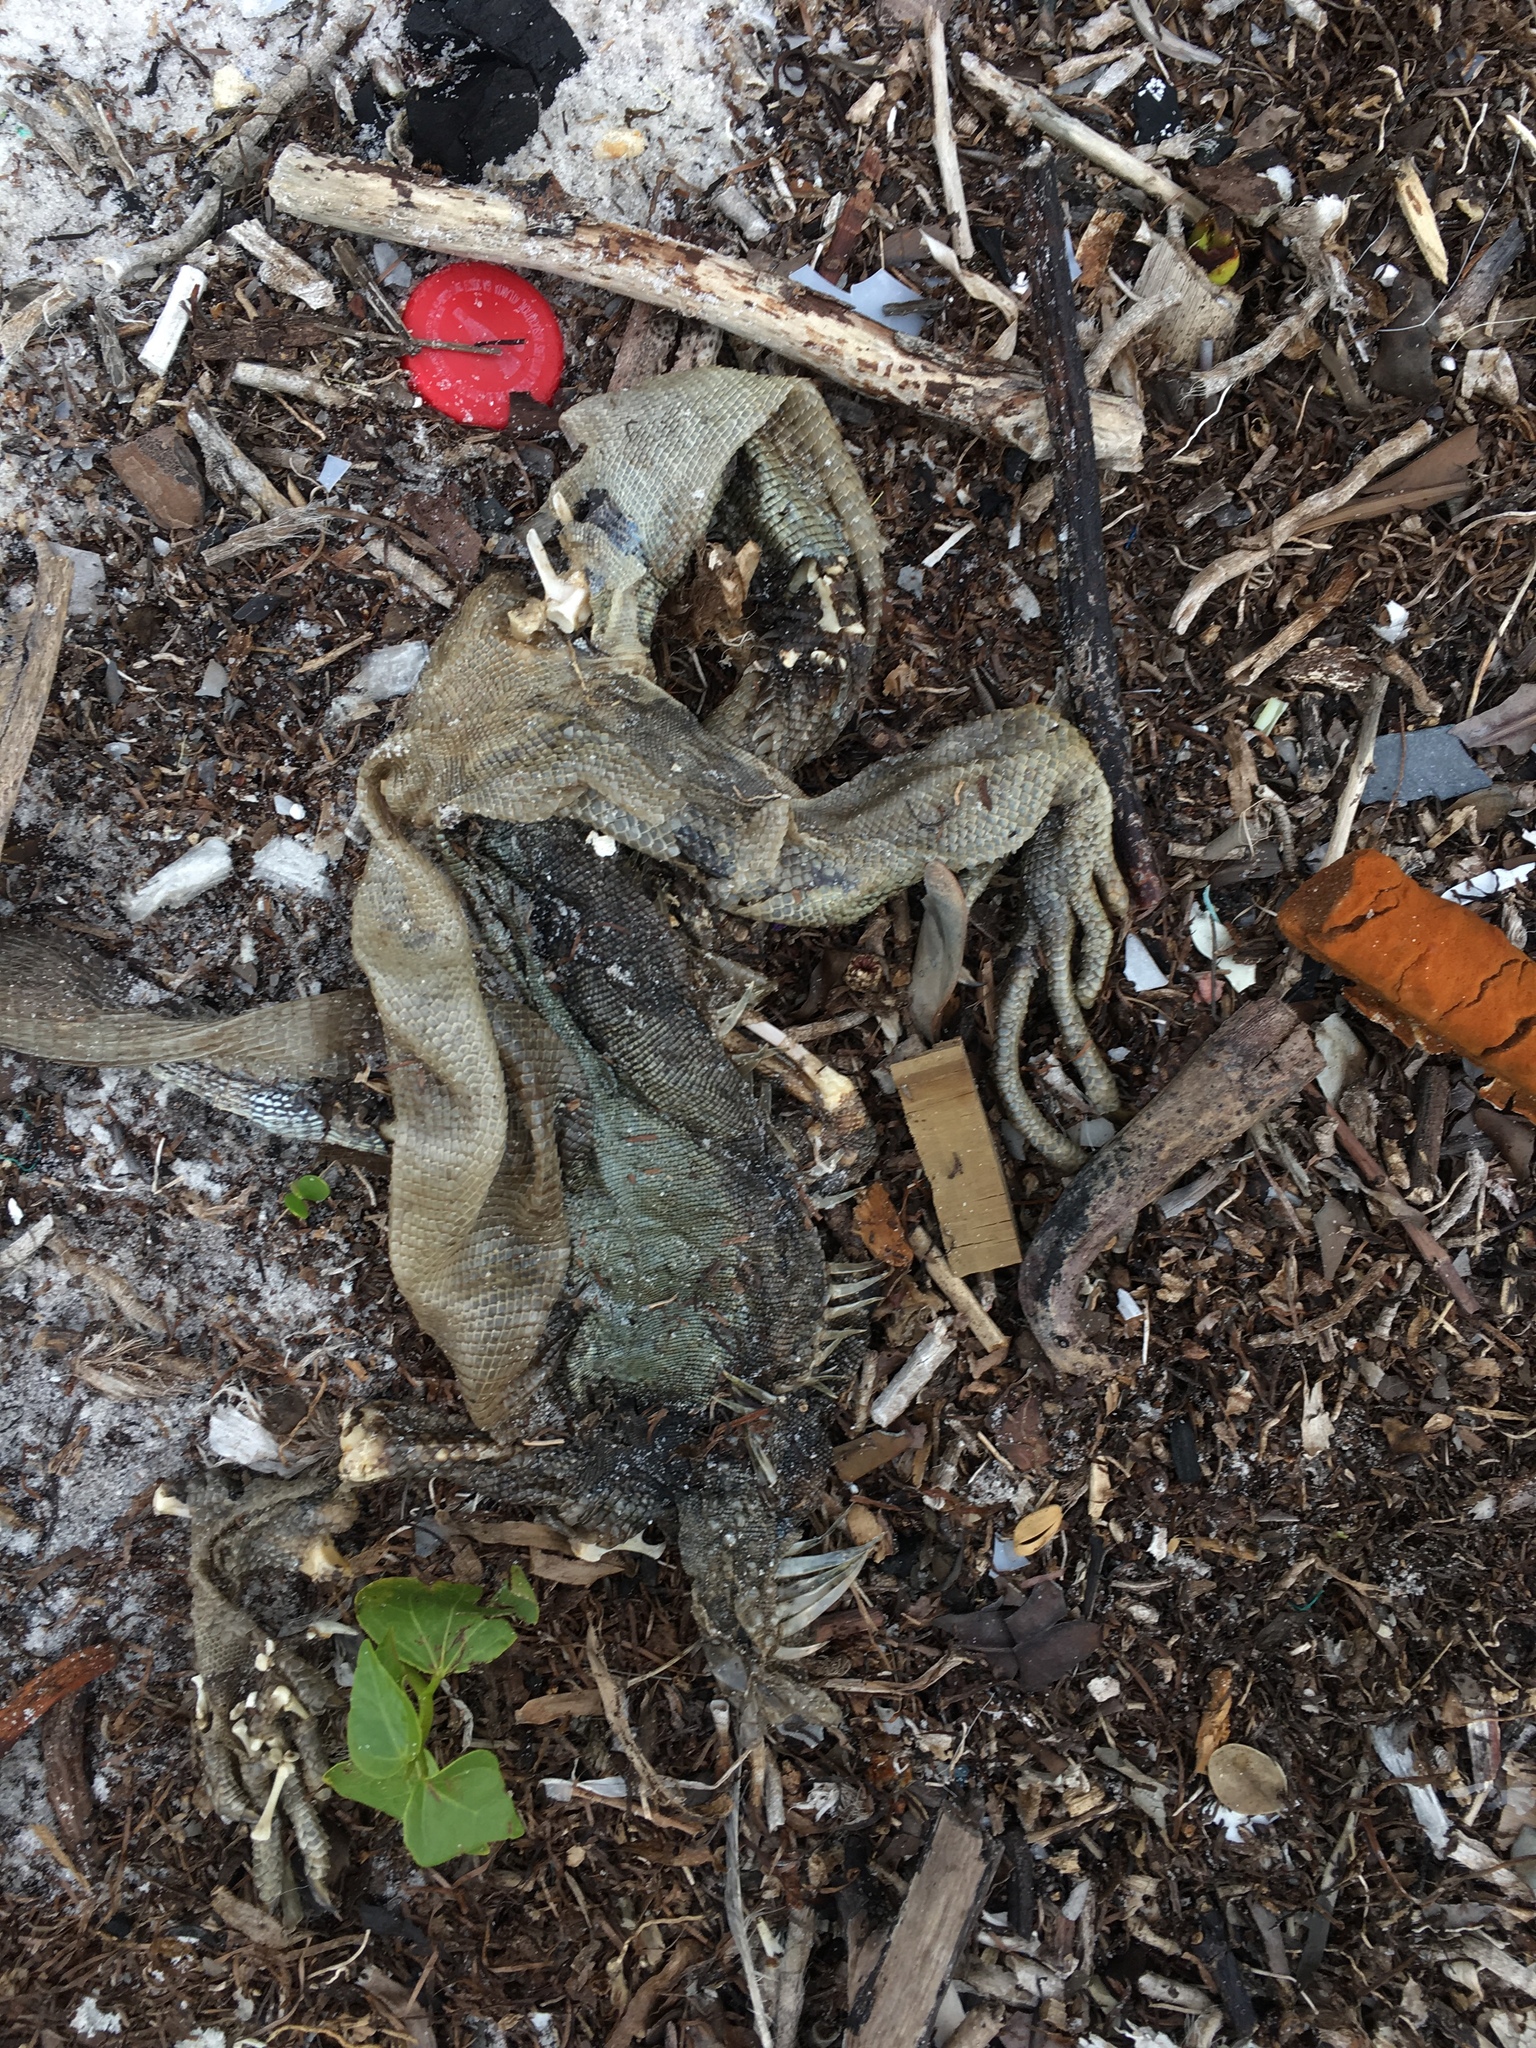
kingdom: Animalia
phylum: Chordata
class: Squamata
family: Iguanidae
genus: Iguana
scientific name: Iguana iguana
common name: Green iguana
